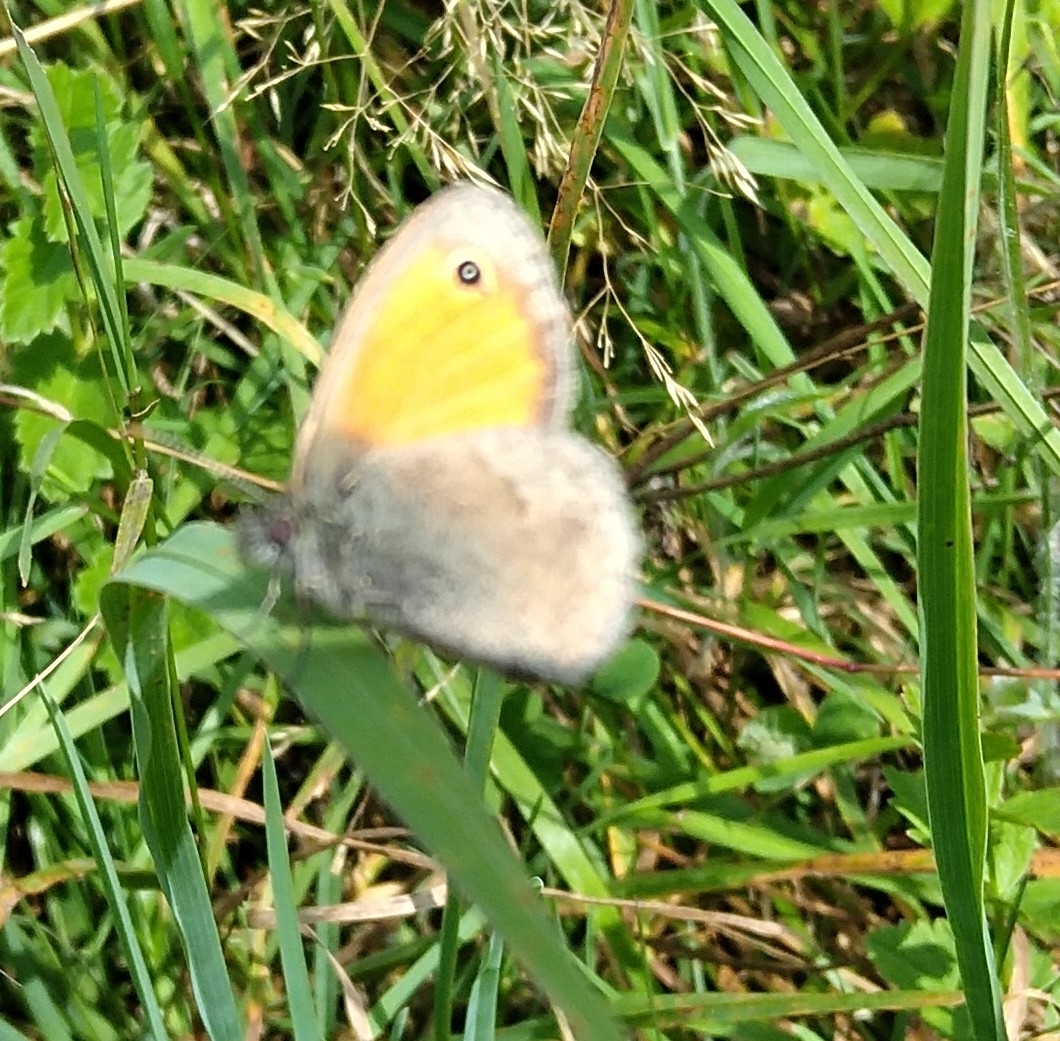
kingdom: Animalia
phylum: Arthropoda
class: Insecta
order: Lepidoptera
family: Nymphalidae
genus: Coenonympha
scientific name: Coenonympha pamphilus
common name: Small heath
